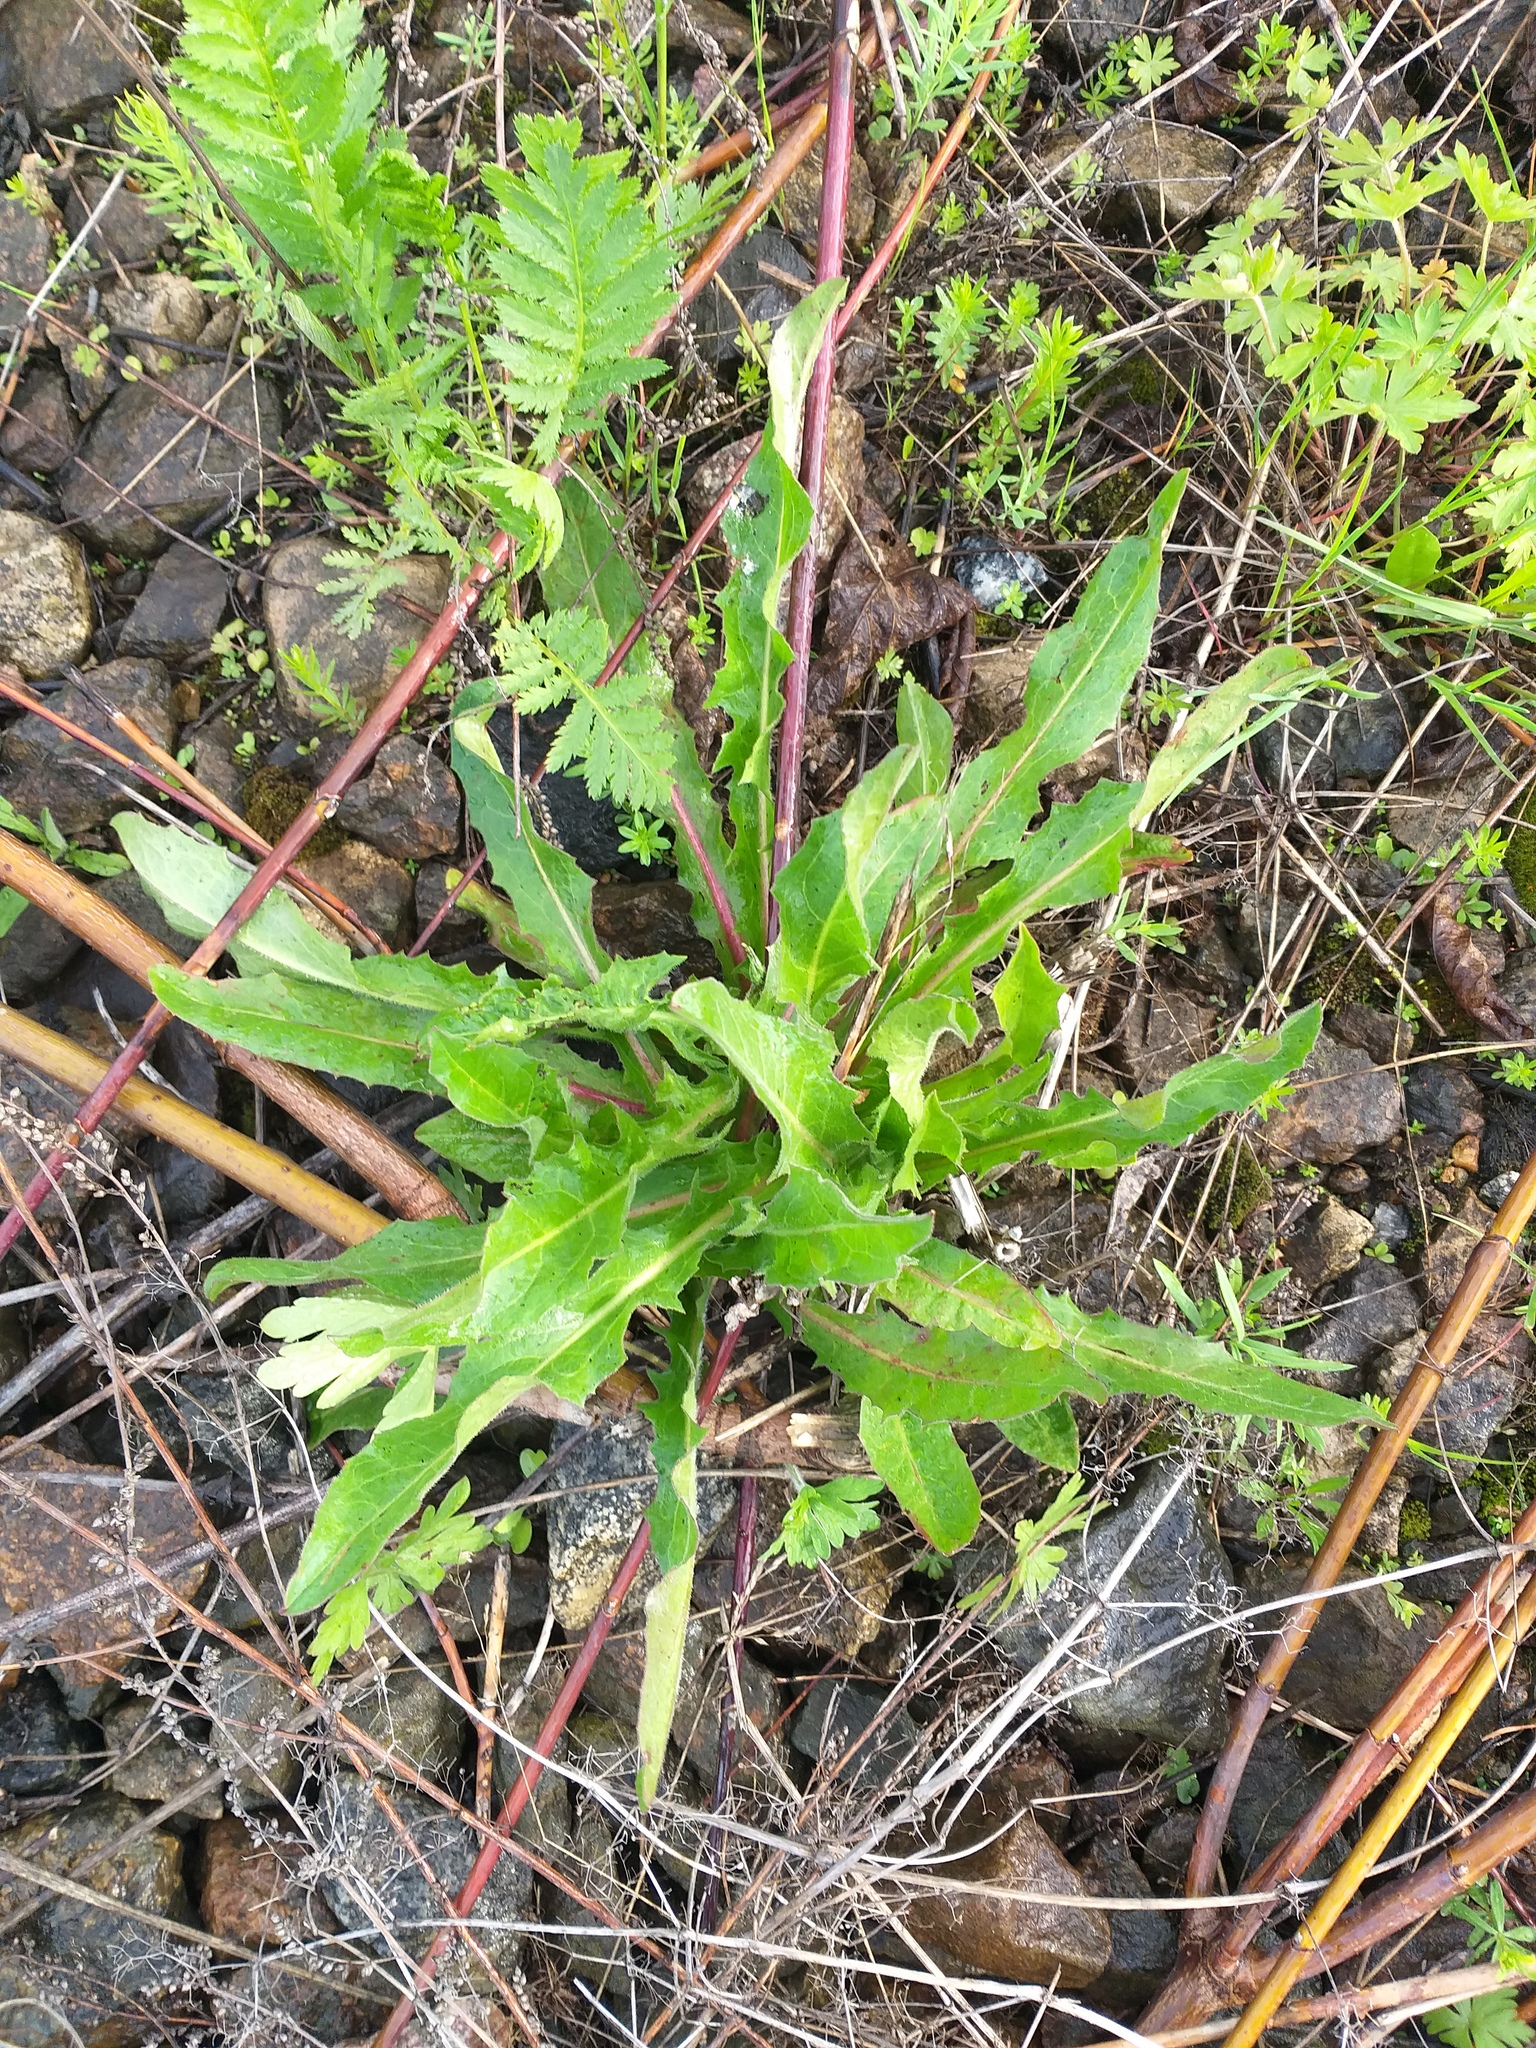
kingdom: Plantae
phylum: Tracheophyta
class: Magnoliopsida
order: Asterales
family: Asteraceae
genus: Cichorium
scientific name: Cichorium intybus
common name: Chicory
